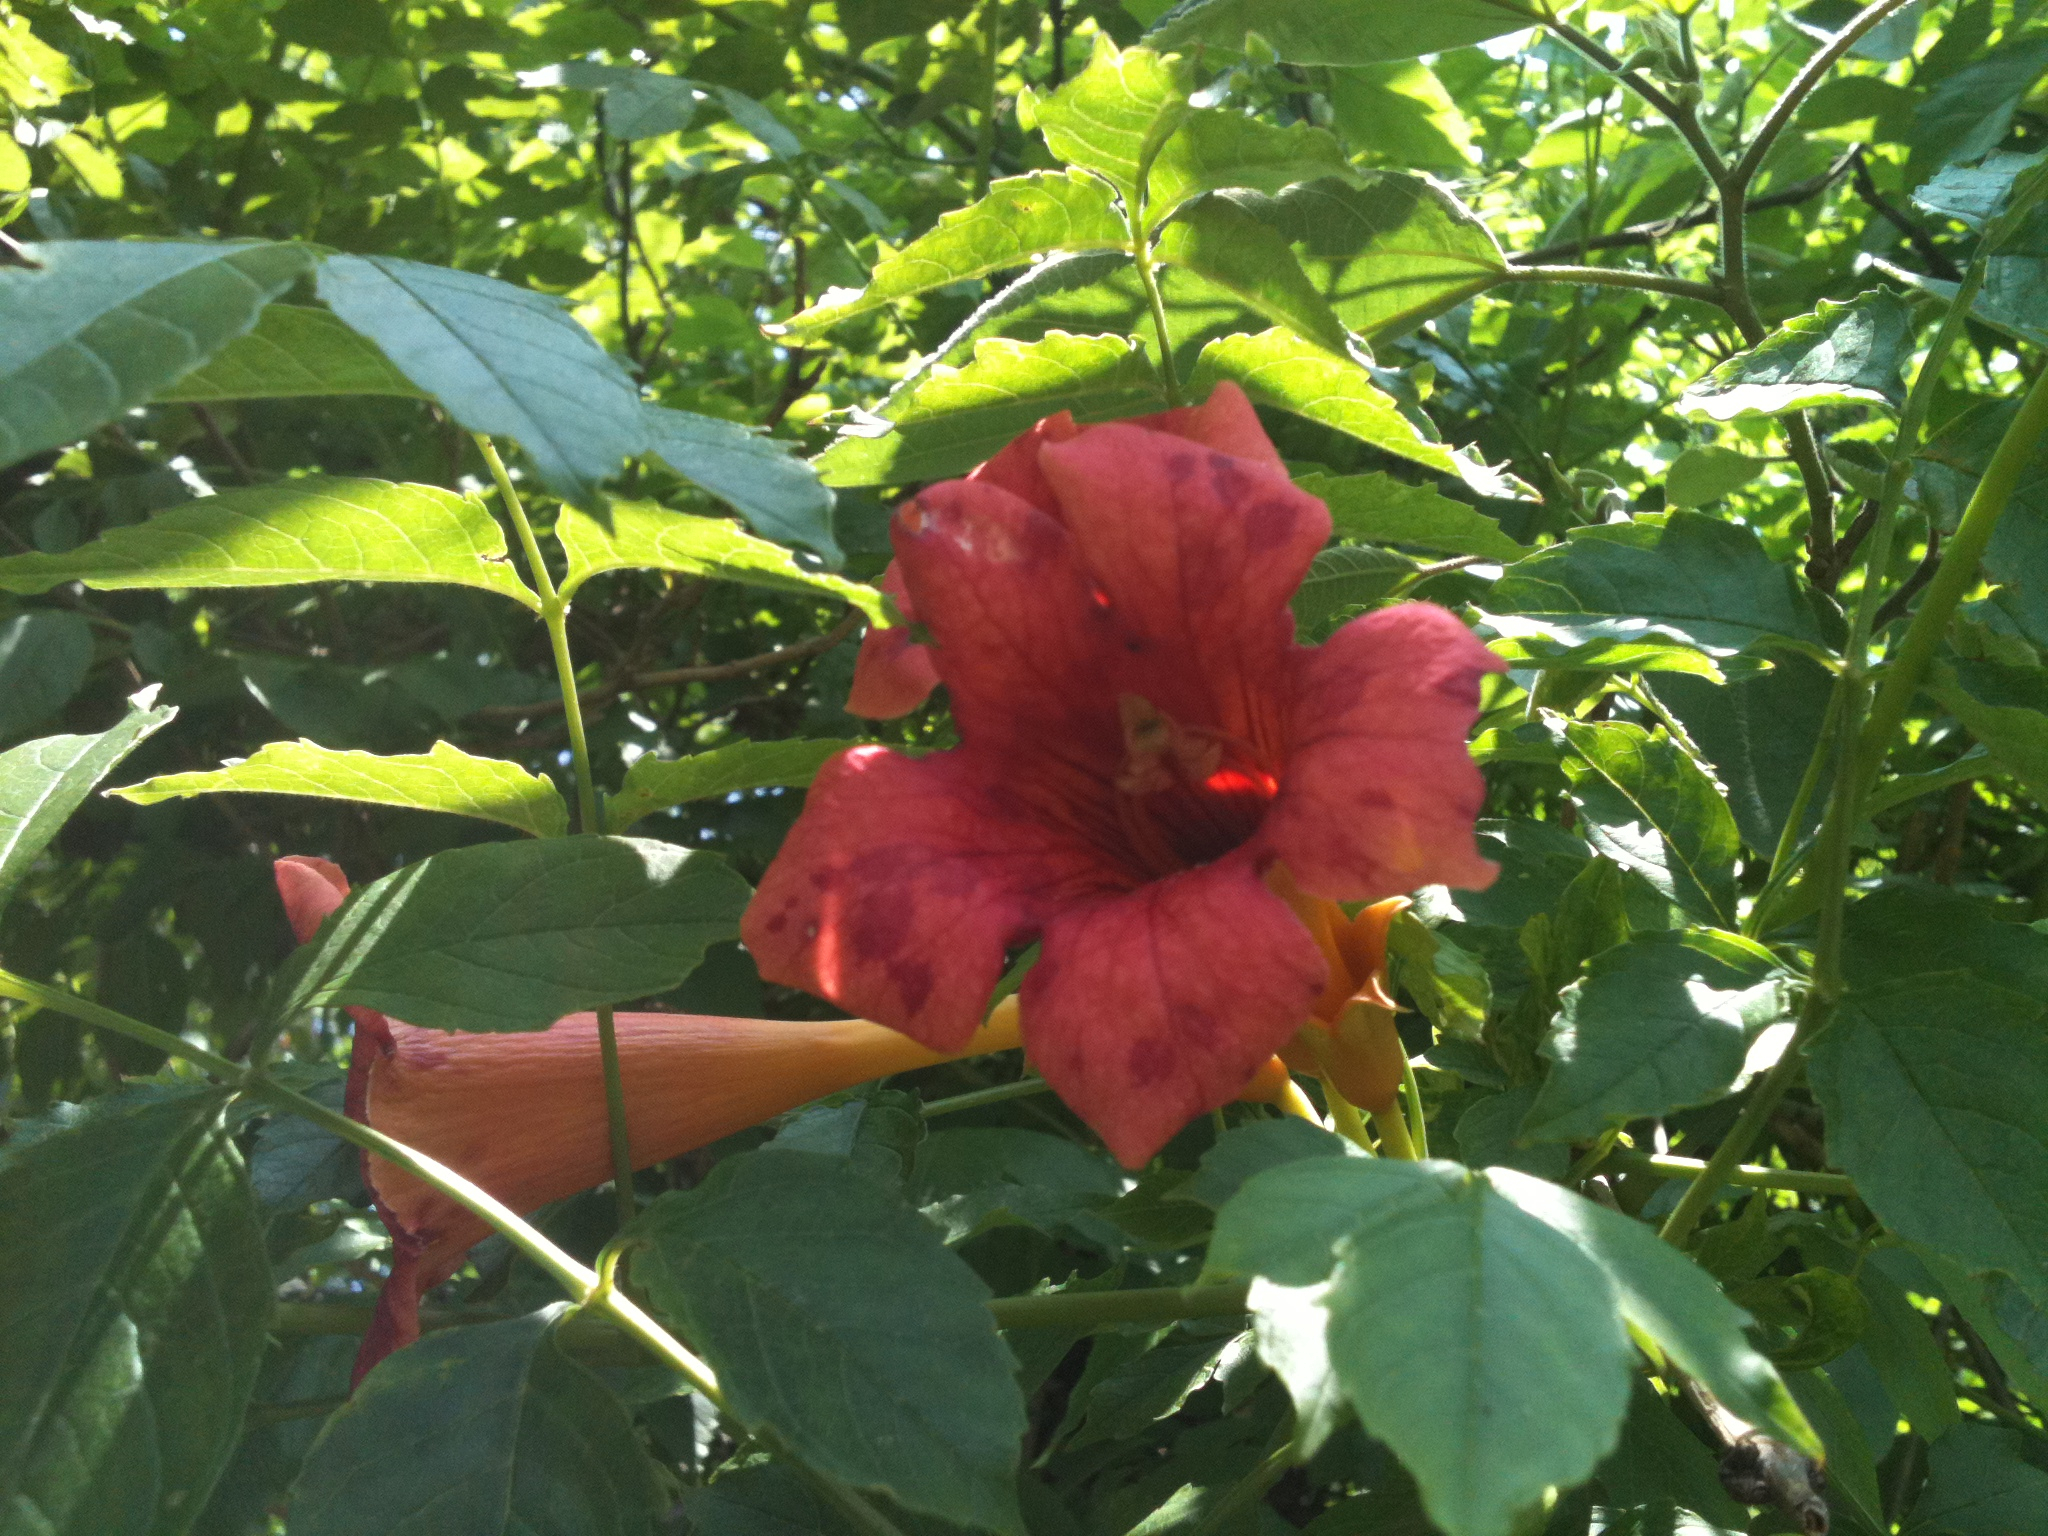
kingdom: Plantae
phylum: Tracheophyta
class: Magnoliopsida
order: Lamiales
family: Bignoniaceae
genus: Campsis
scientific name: Campsis radicans
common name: Trumpet-creeper
